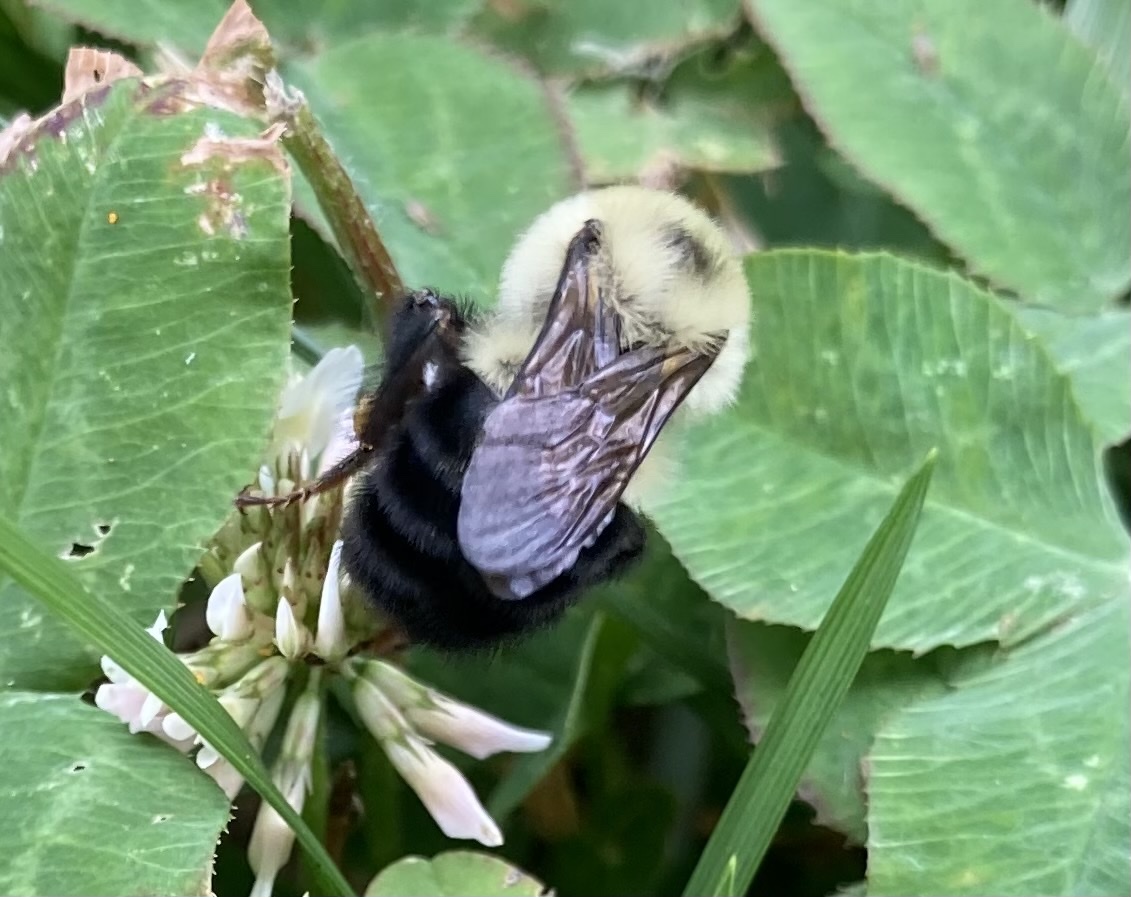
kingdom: Animalia
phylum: Arthropoda
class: Insecta
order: Hymenoptera
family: Apidae
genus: Bombus
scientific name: Bombus bimaculatus
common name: Two-spotted bumble bee
